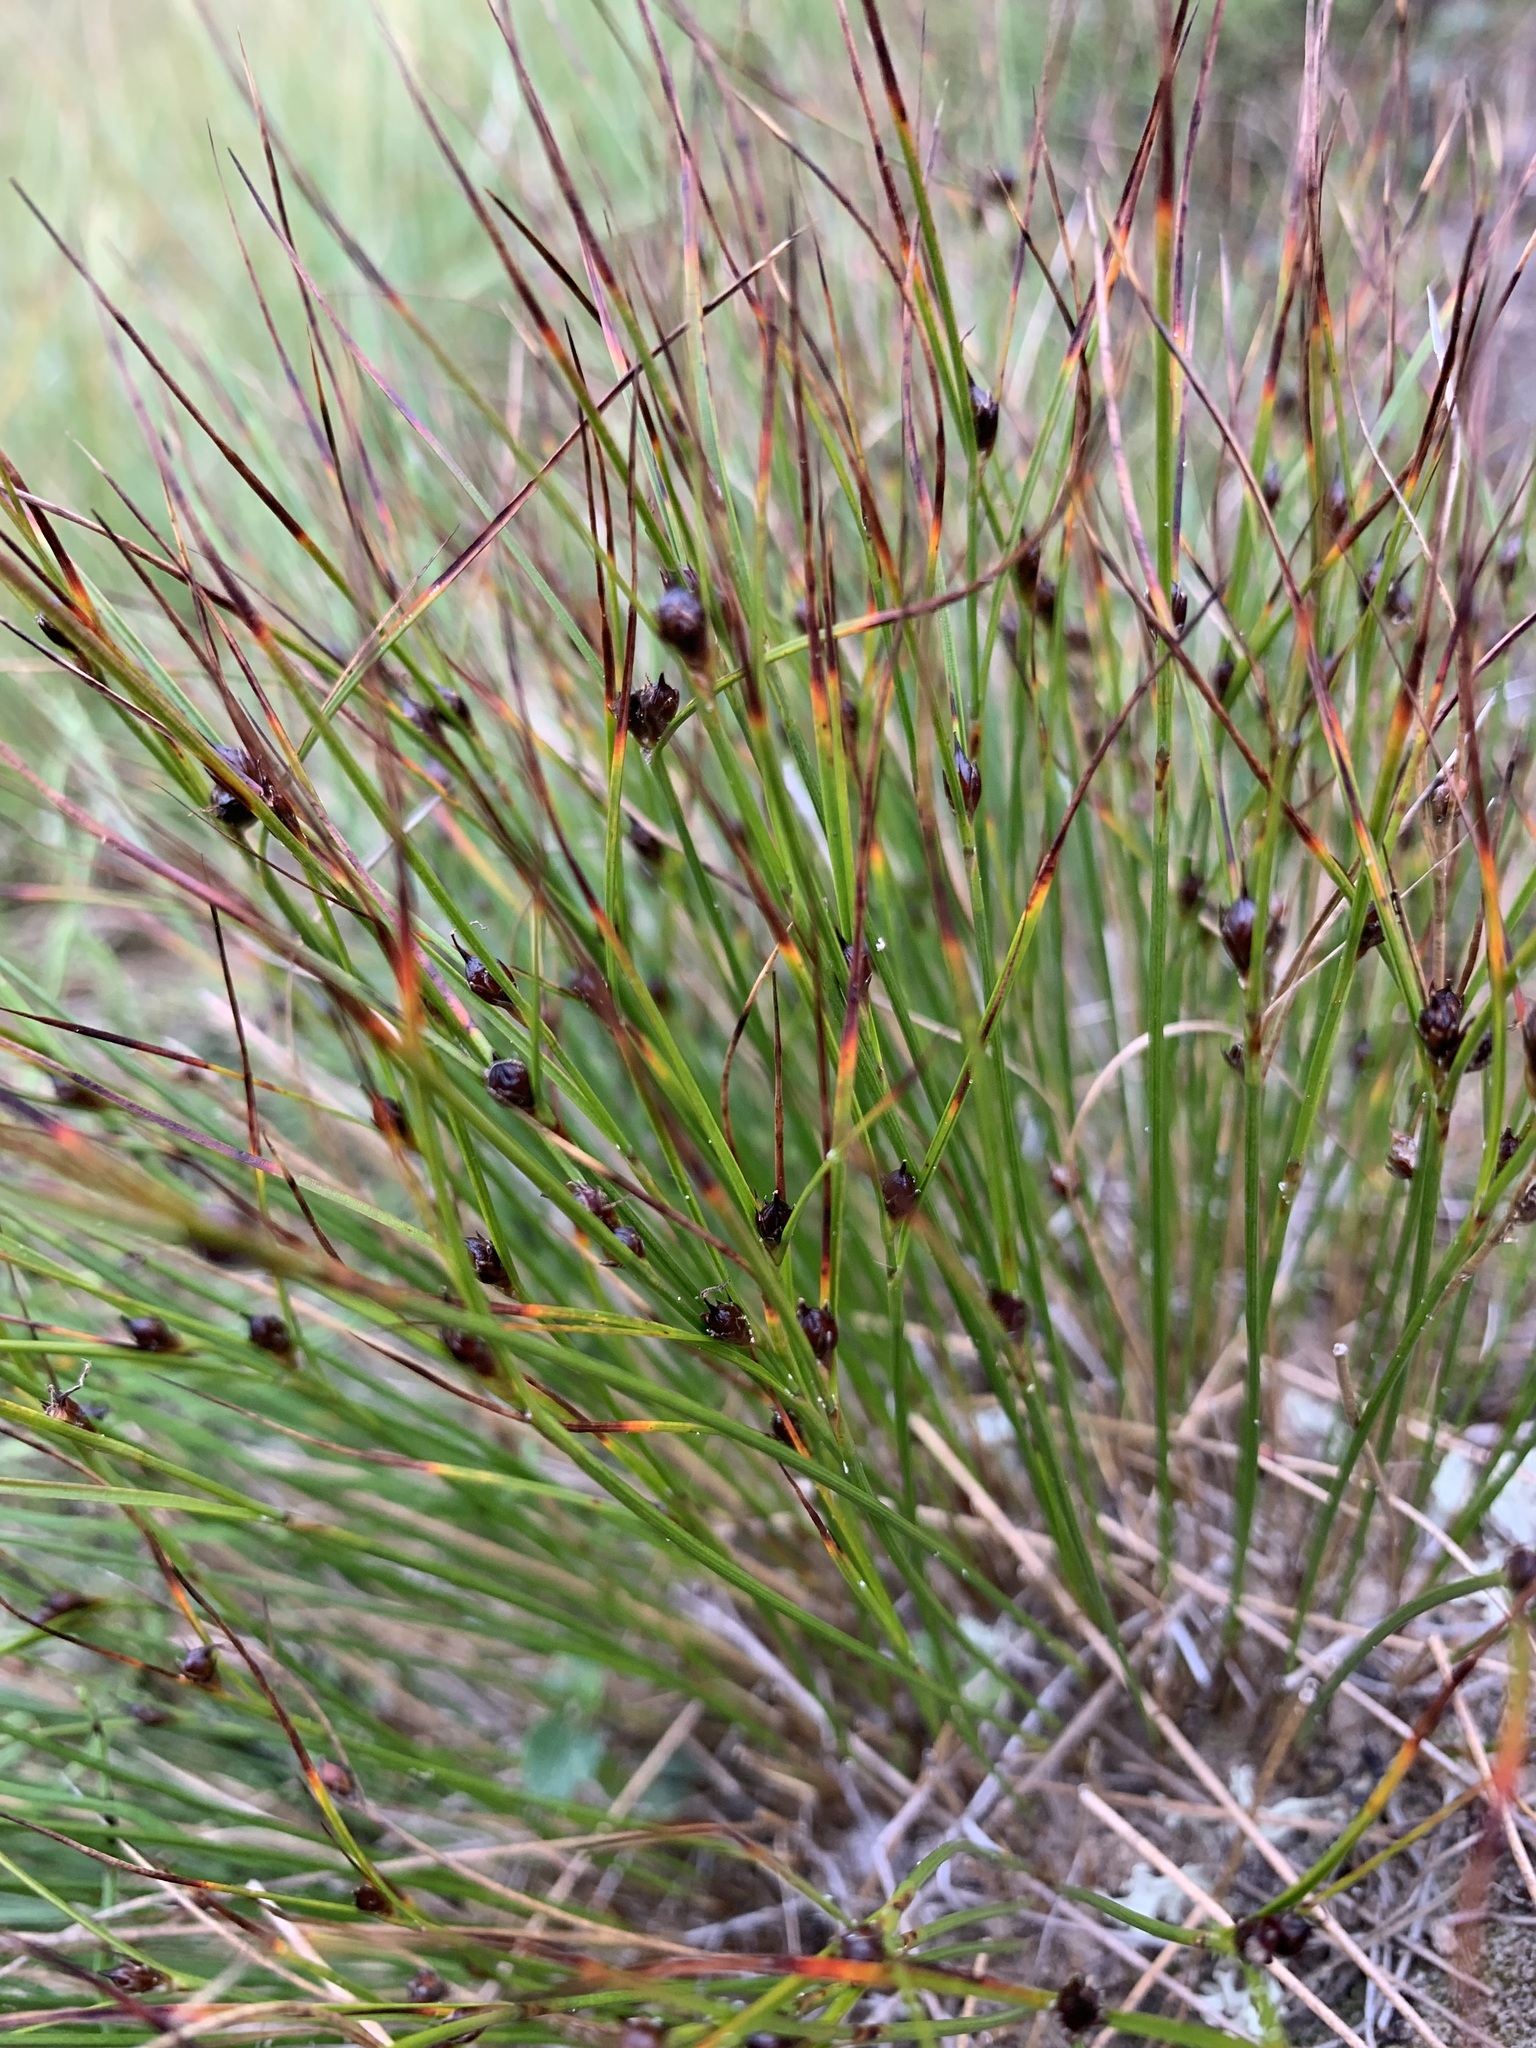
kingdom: Plantae
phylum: Tracheophyta
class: Liliopsida
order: Poales
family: Juncaceae
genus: Oreojuncus
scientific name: Oreojuncus trifidus
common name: Highland rush
